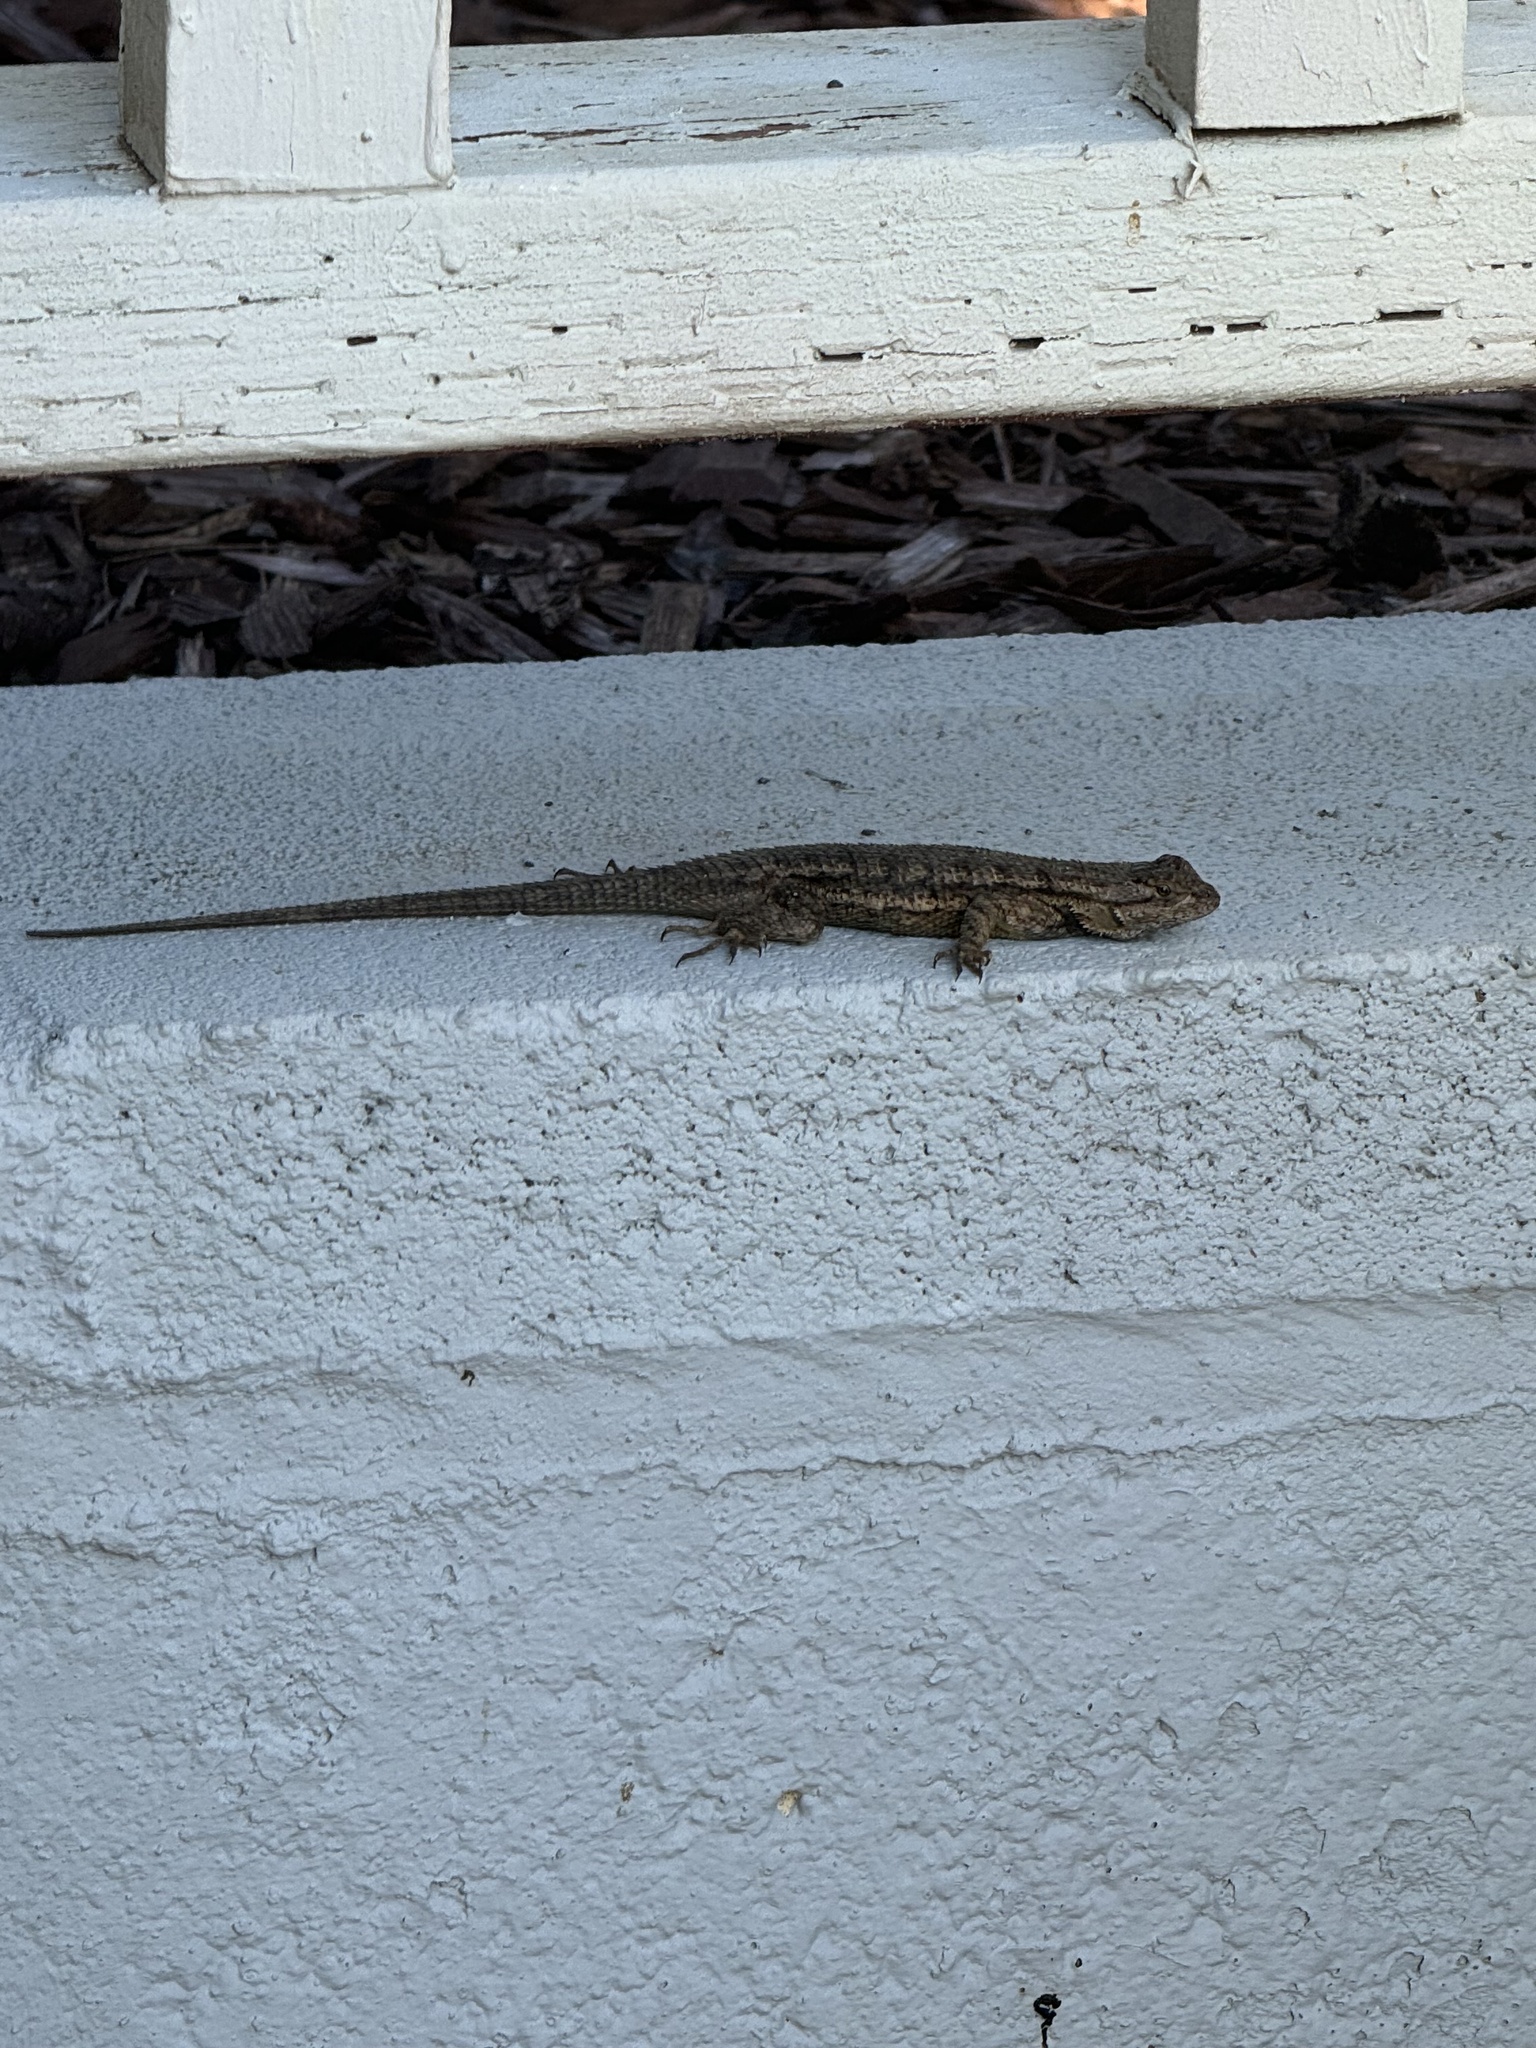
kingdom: Animalia
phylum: Chordata
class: Squamata
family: Phrynosomatidae
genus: Sceloporus
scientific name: Sceloporus occidentalis
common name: Western fence lizard
